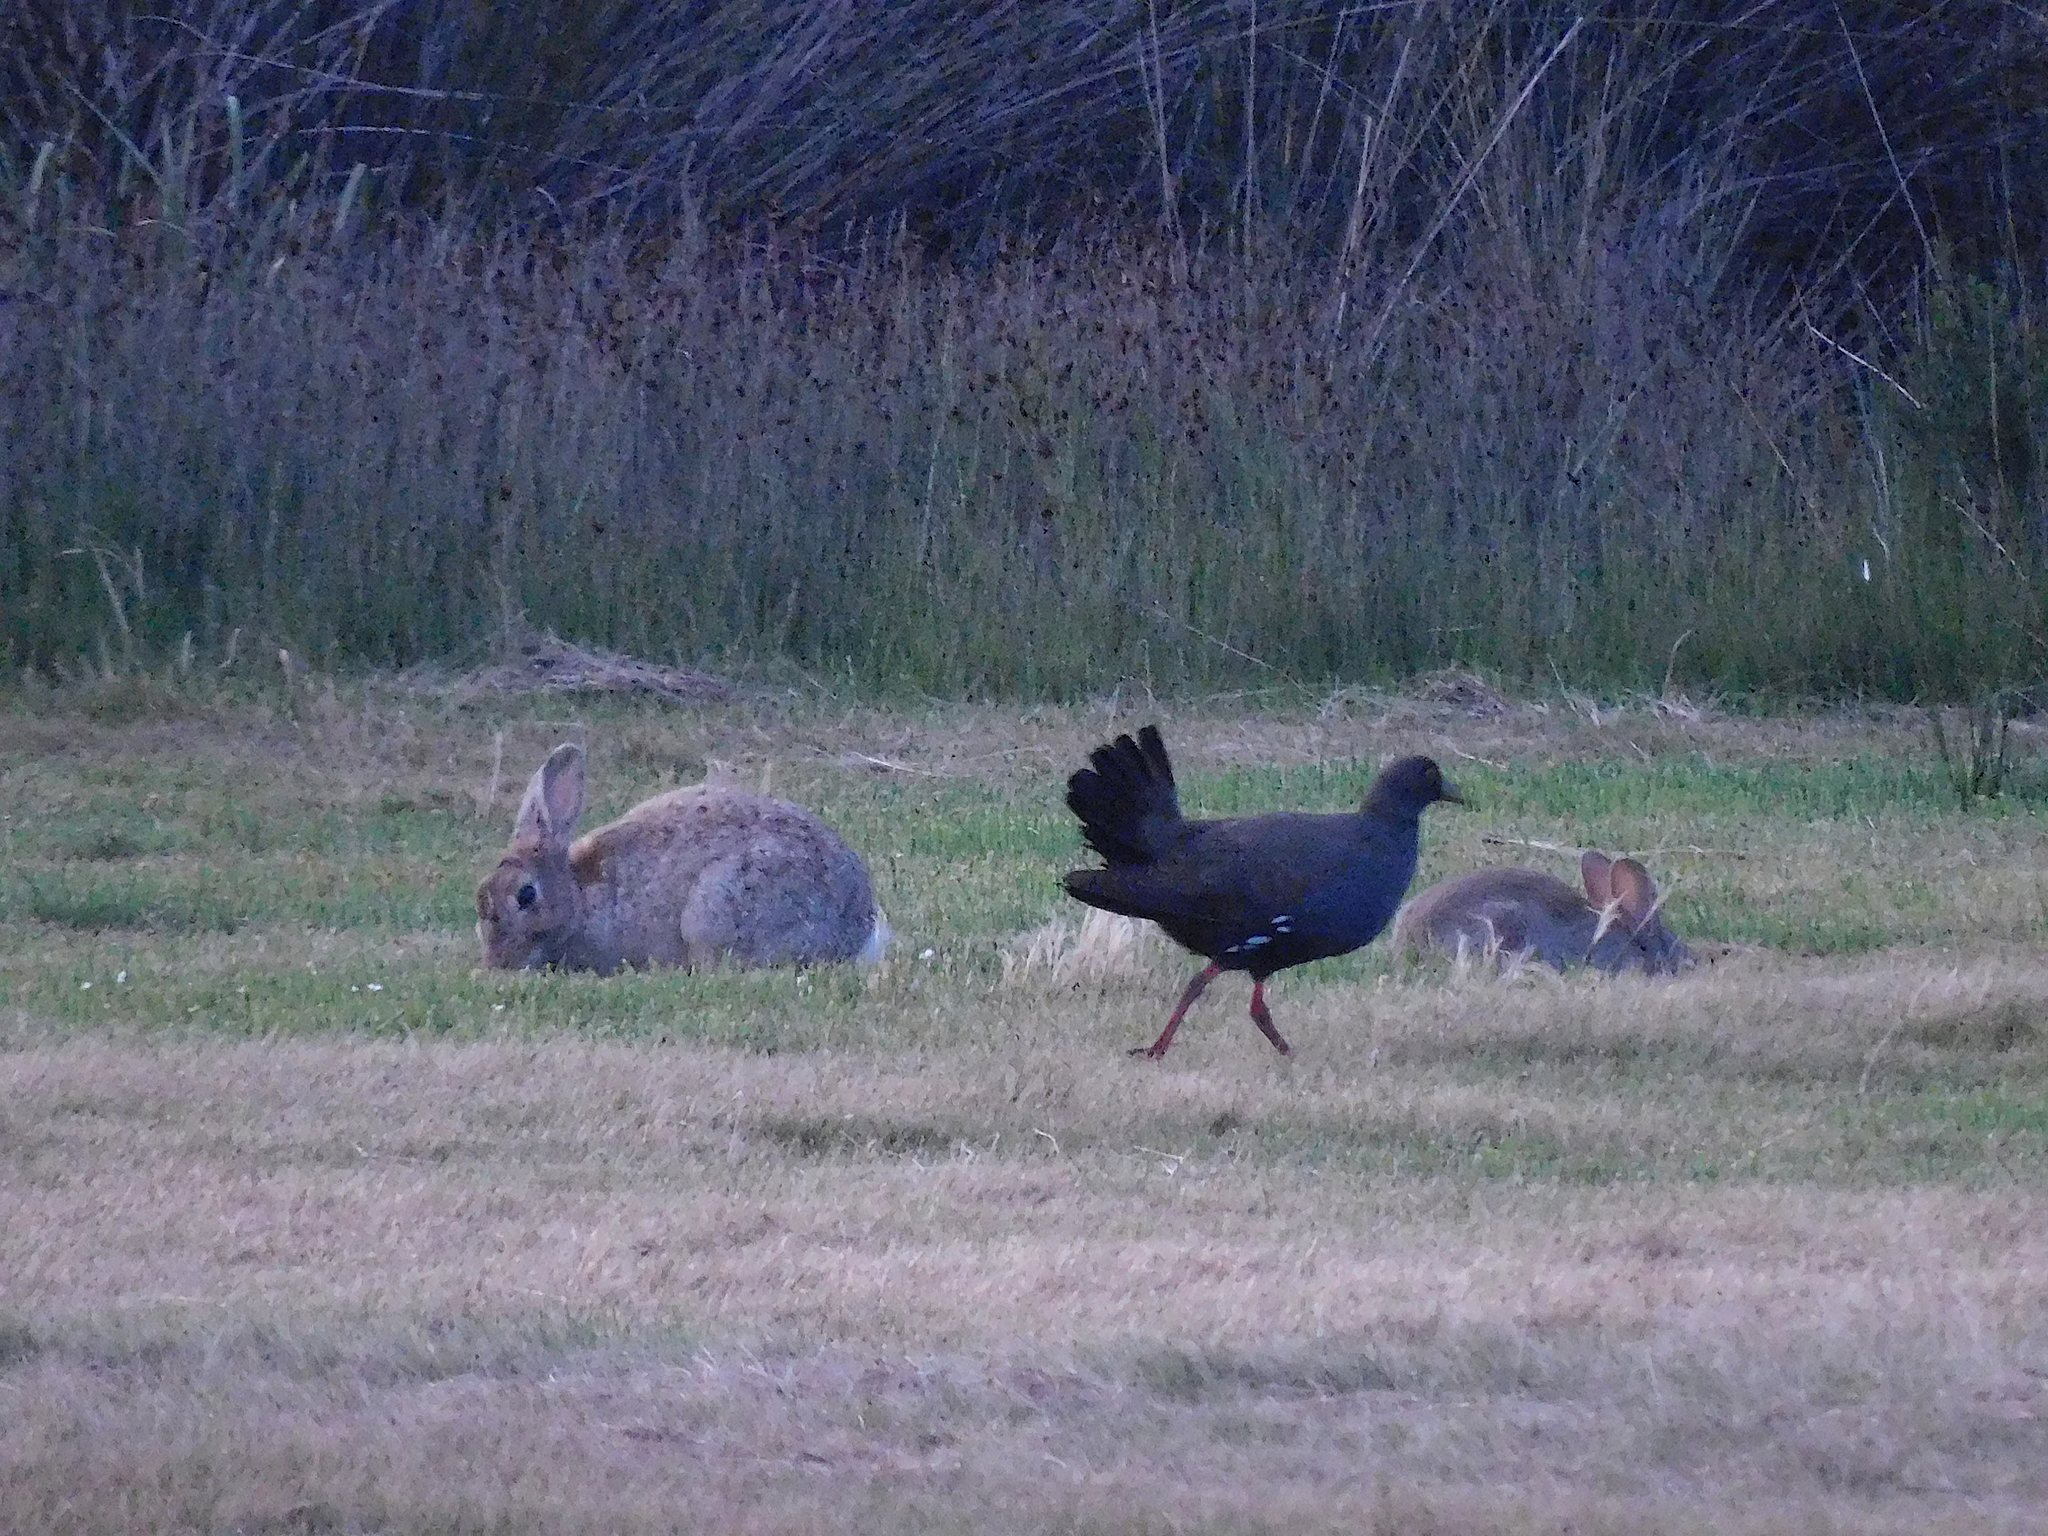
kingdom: Animalia
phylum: Chordata
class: Mammalia
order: Lagomorpha
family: Leporidae
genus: Oryctolagus
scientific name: Oryctolagus cuniculus
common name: European rabbit
